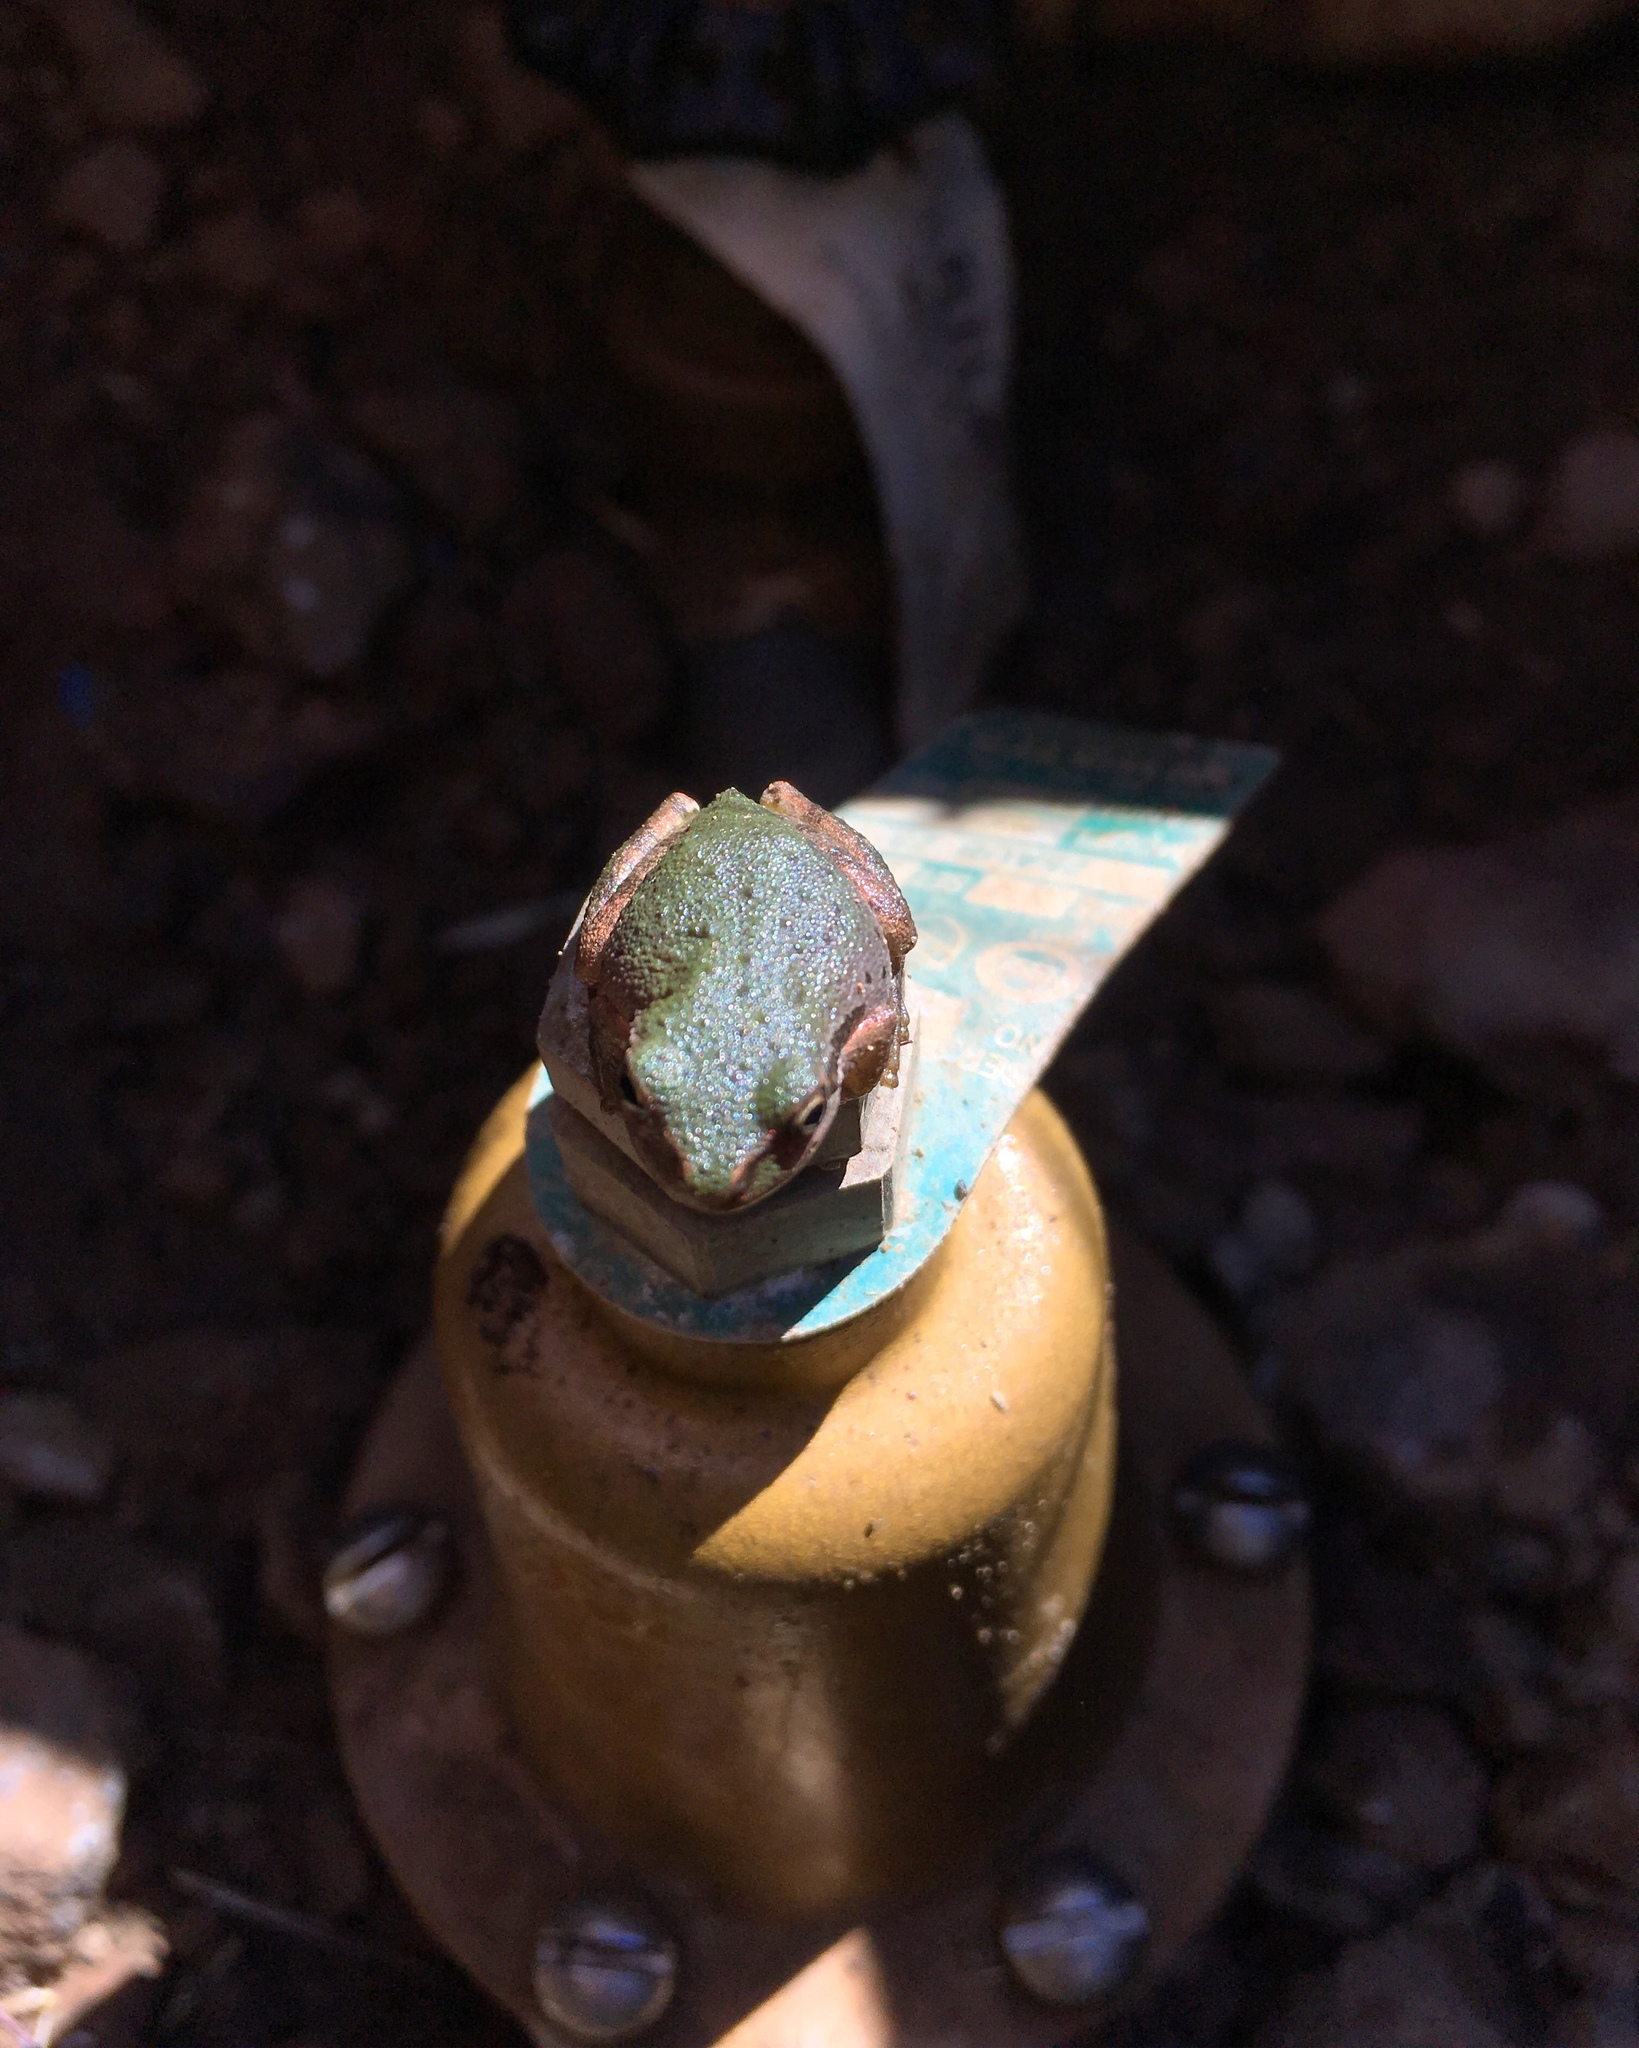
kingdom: Animalia
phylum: Chordata
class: Amphibia
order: Anura
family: Hylidae
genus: Pseudacris
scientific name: Pseudacris regilla
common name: Pacific chorus frog
